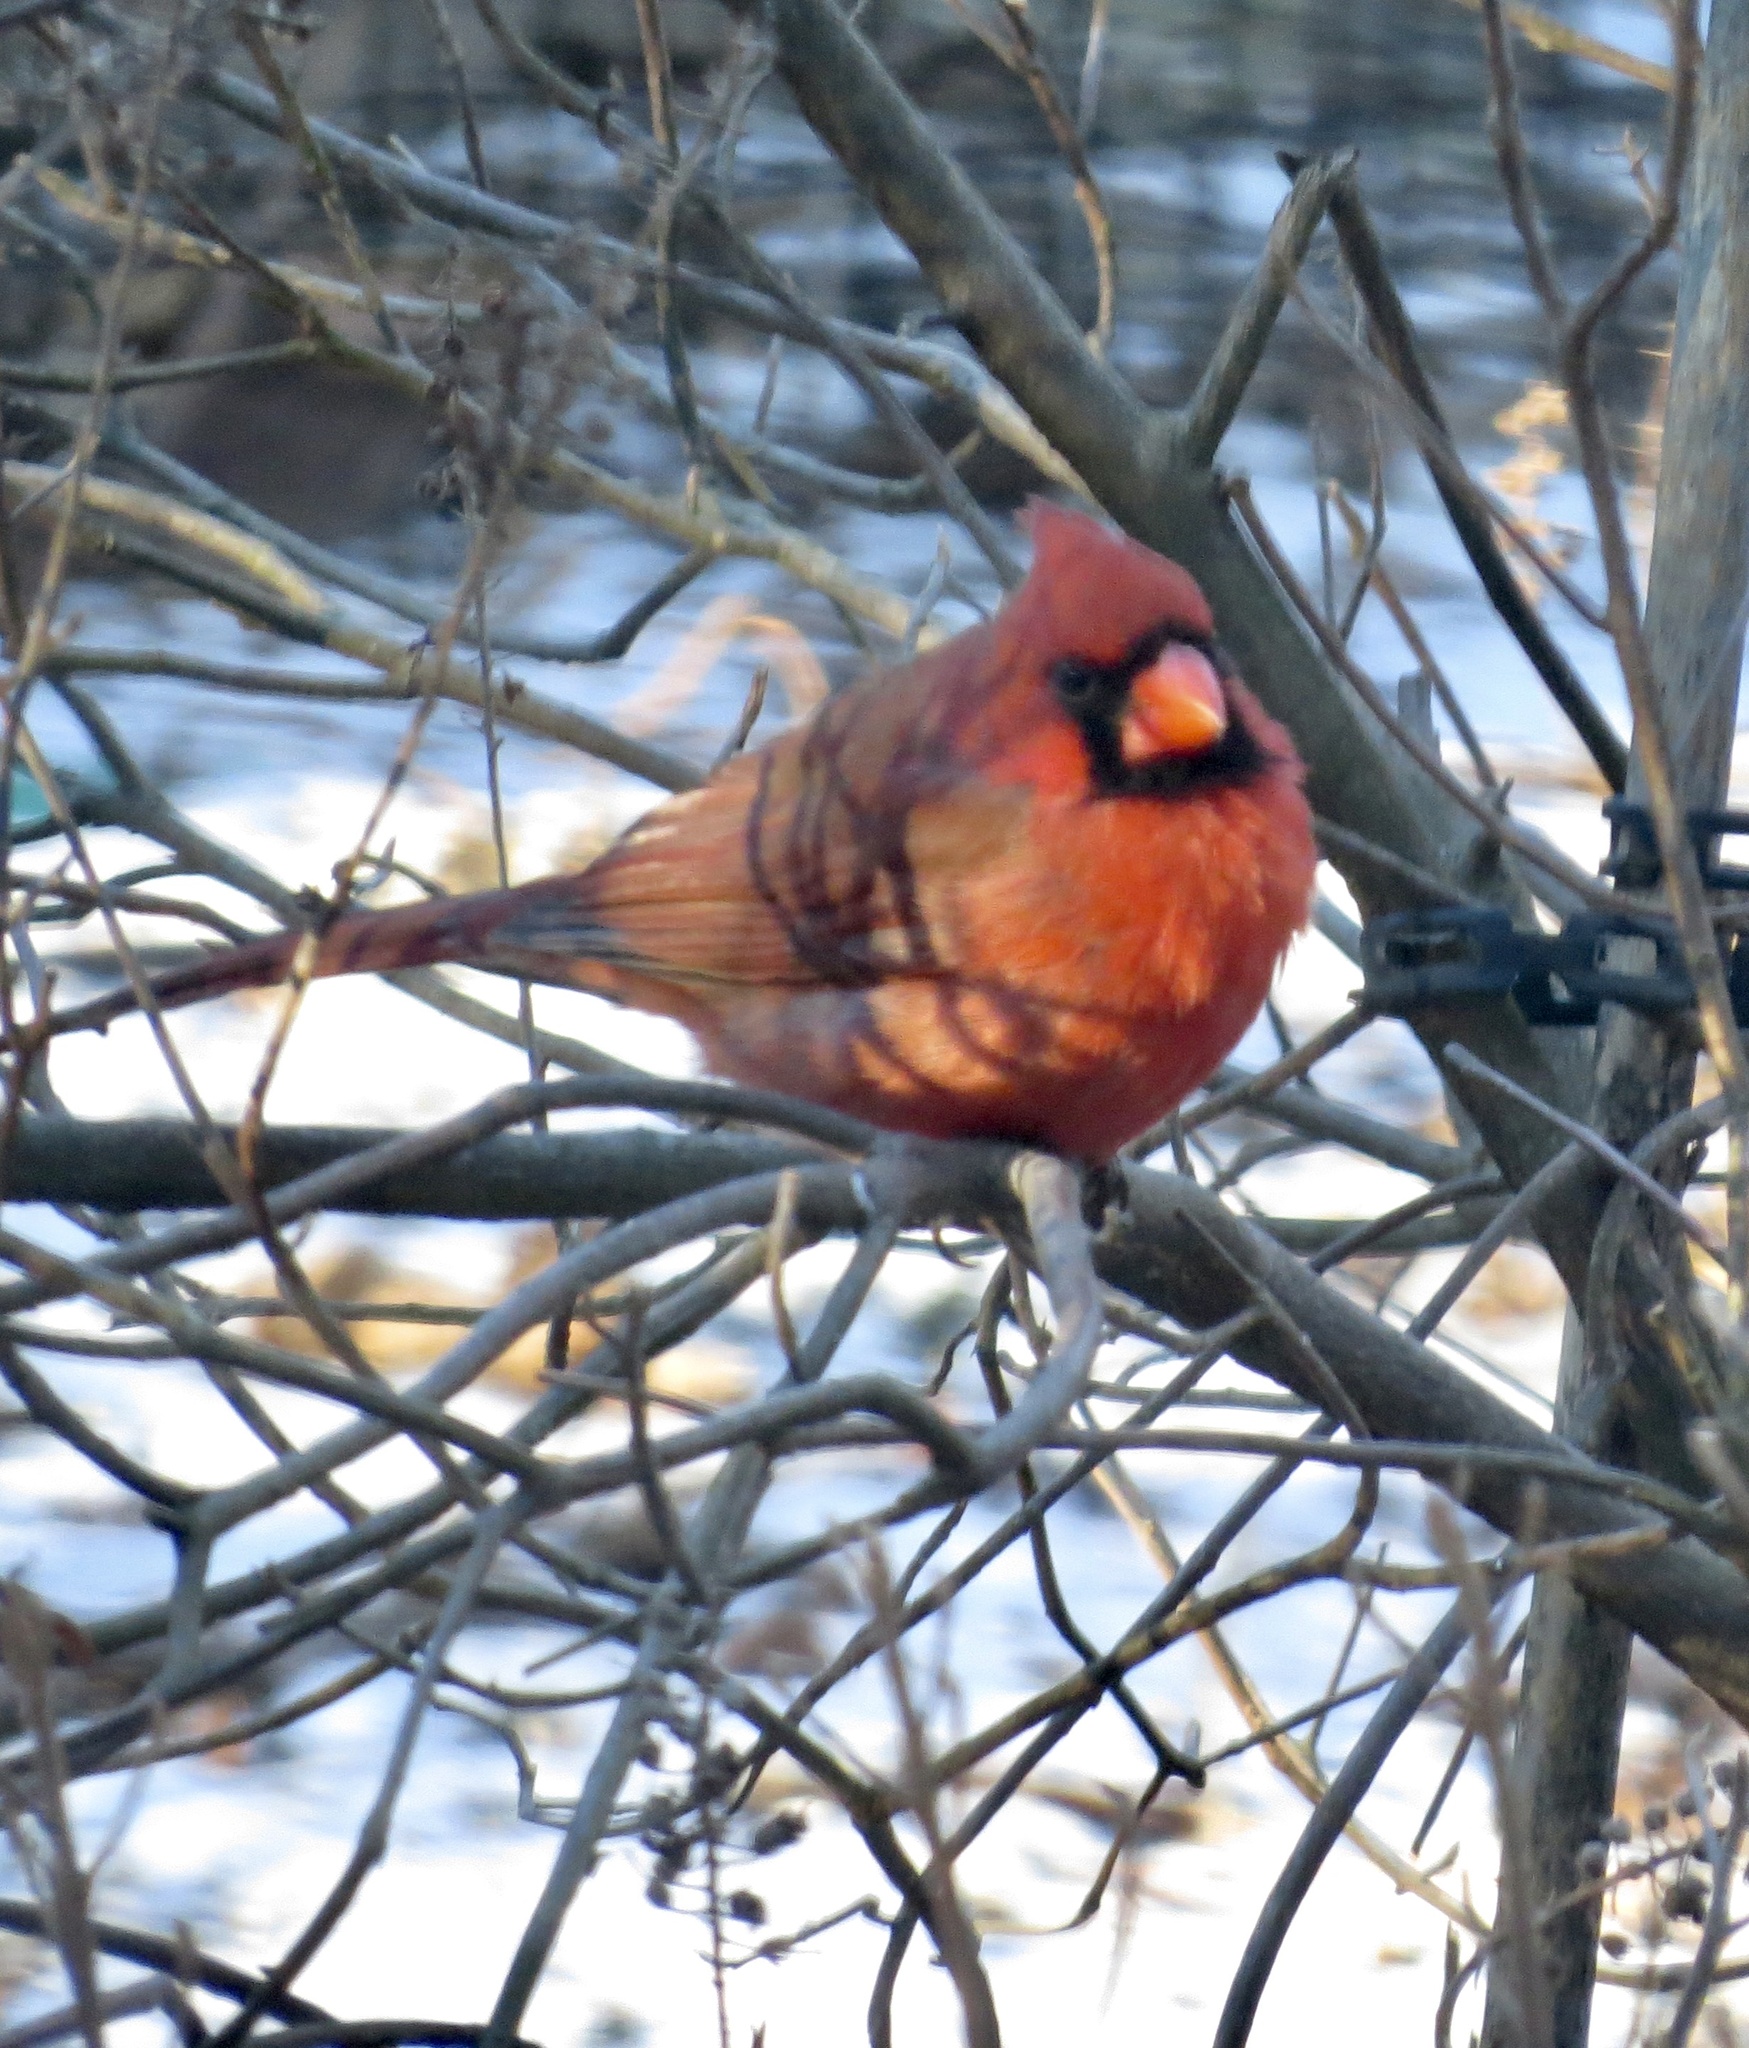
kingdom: Animalia
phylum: Chordata
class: Aves
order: Passeriformes
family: Cardinalidae
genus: Cardinalis
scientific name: Cardinalis cardinalis
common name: Northern cardinal
